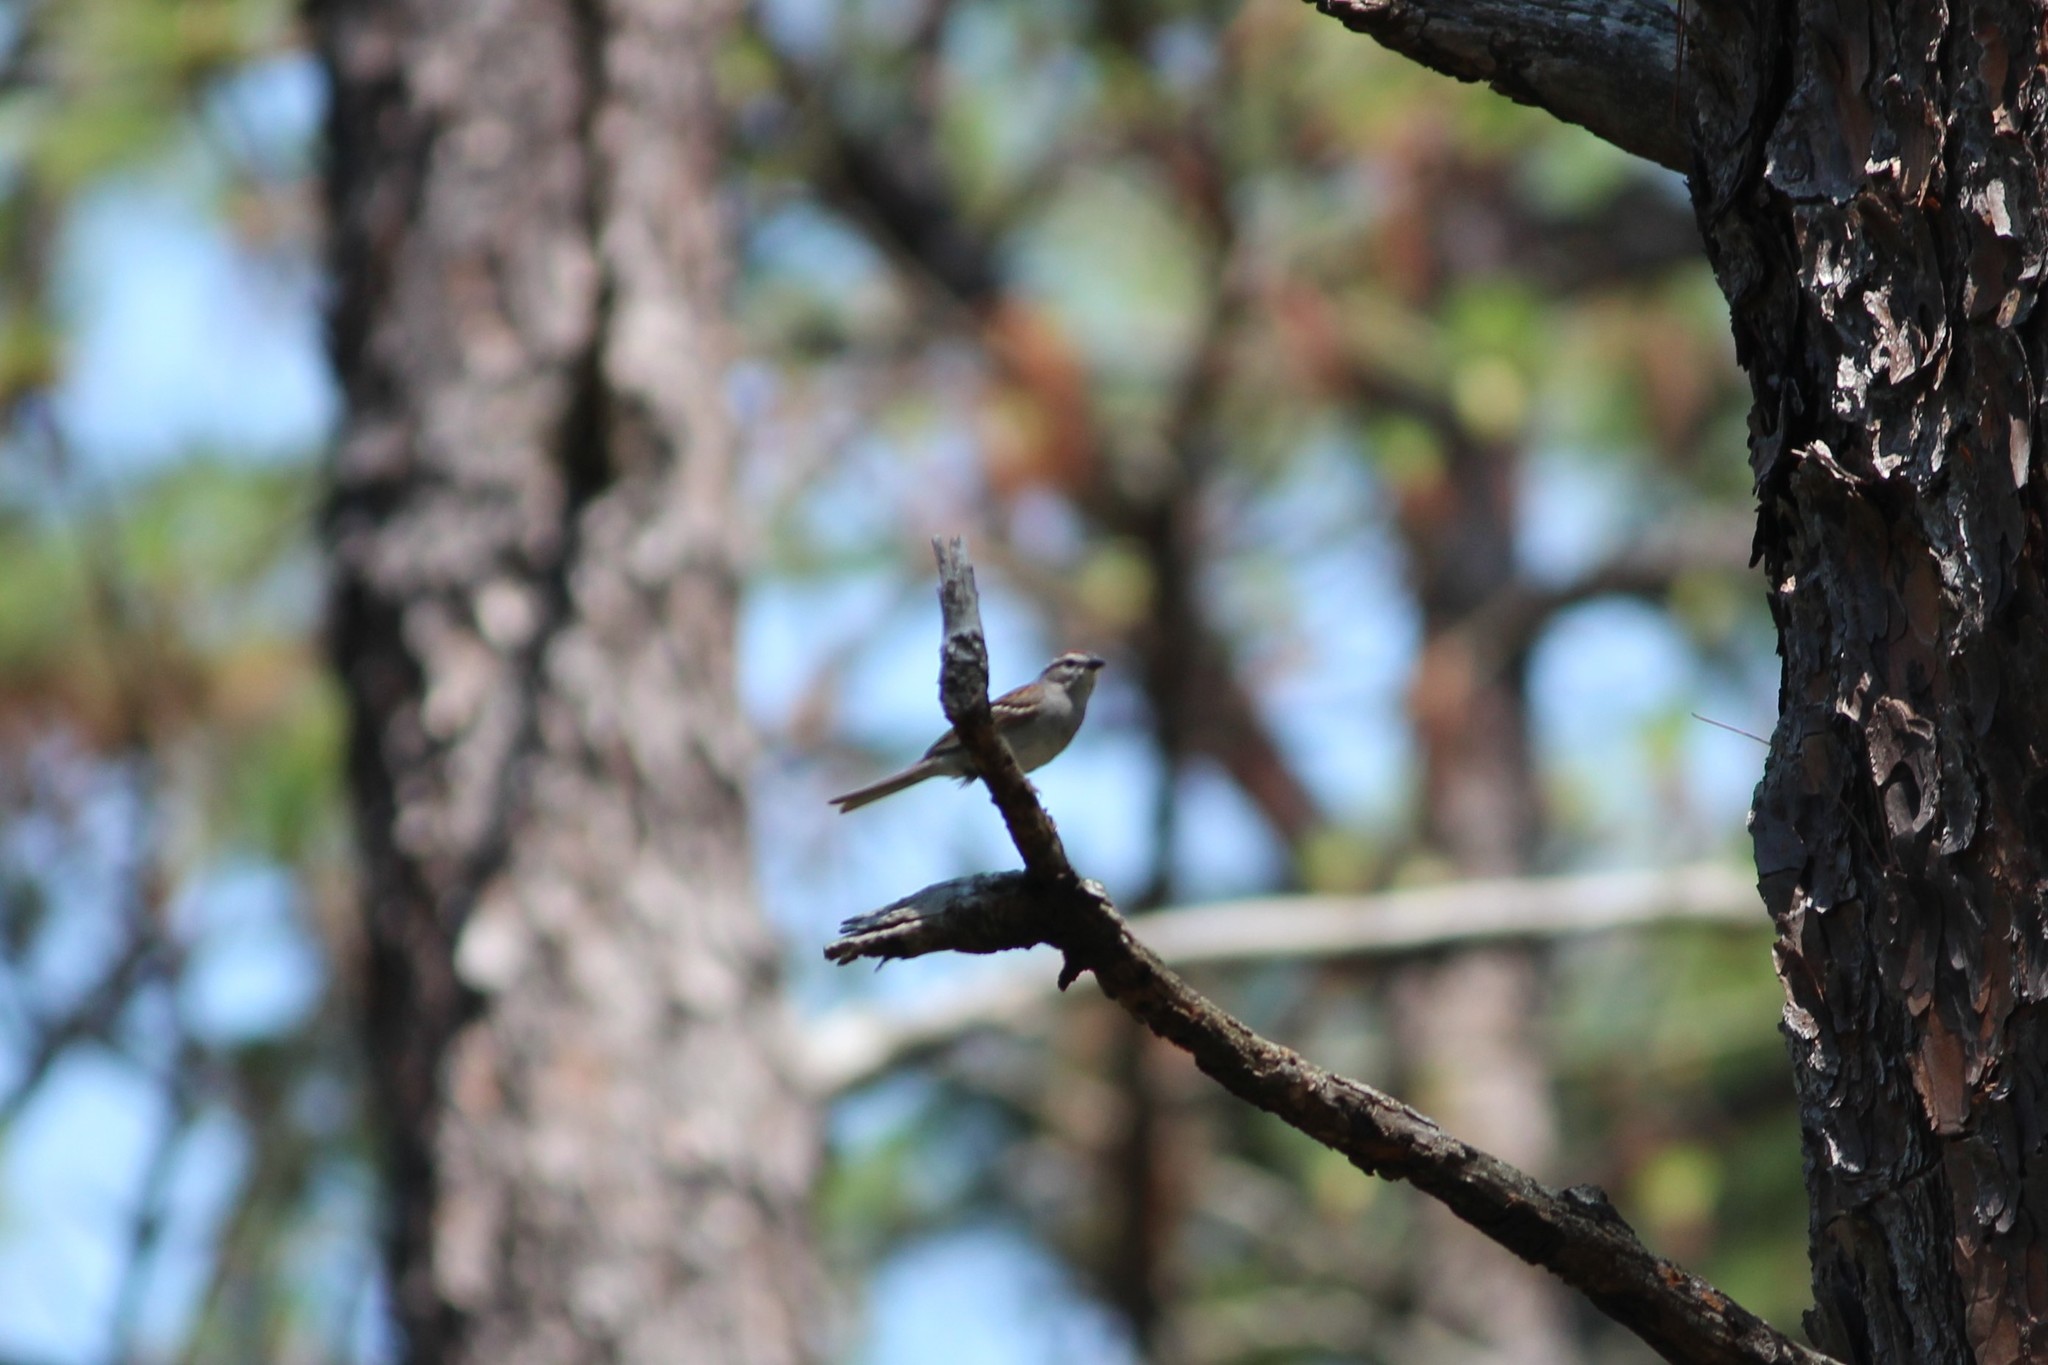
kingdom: Animalia
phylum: Chordata
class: Aves
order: Passeriformes
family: Passerellidae
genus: Spizella
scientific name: Spizella passerina
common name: Chipping sparrow
